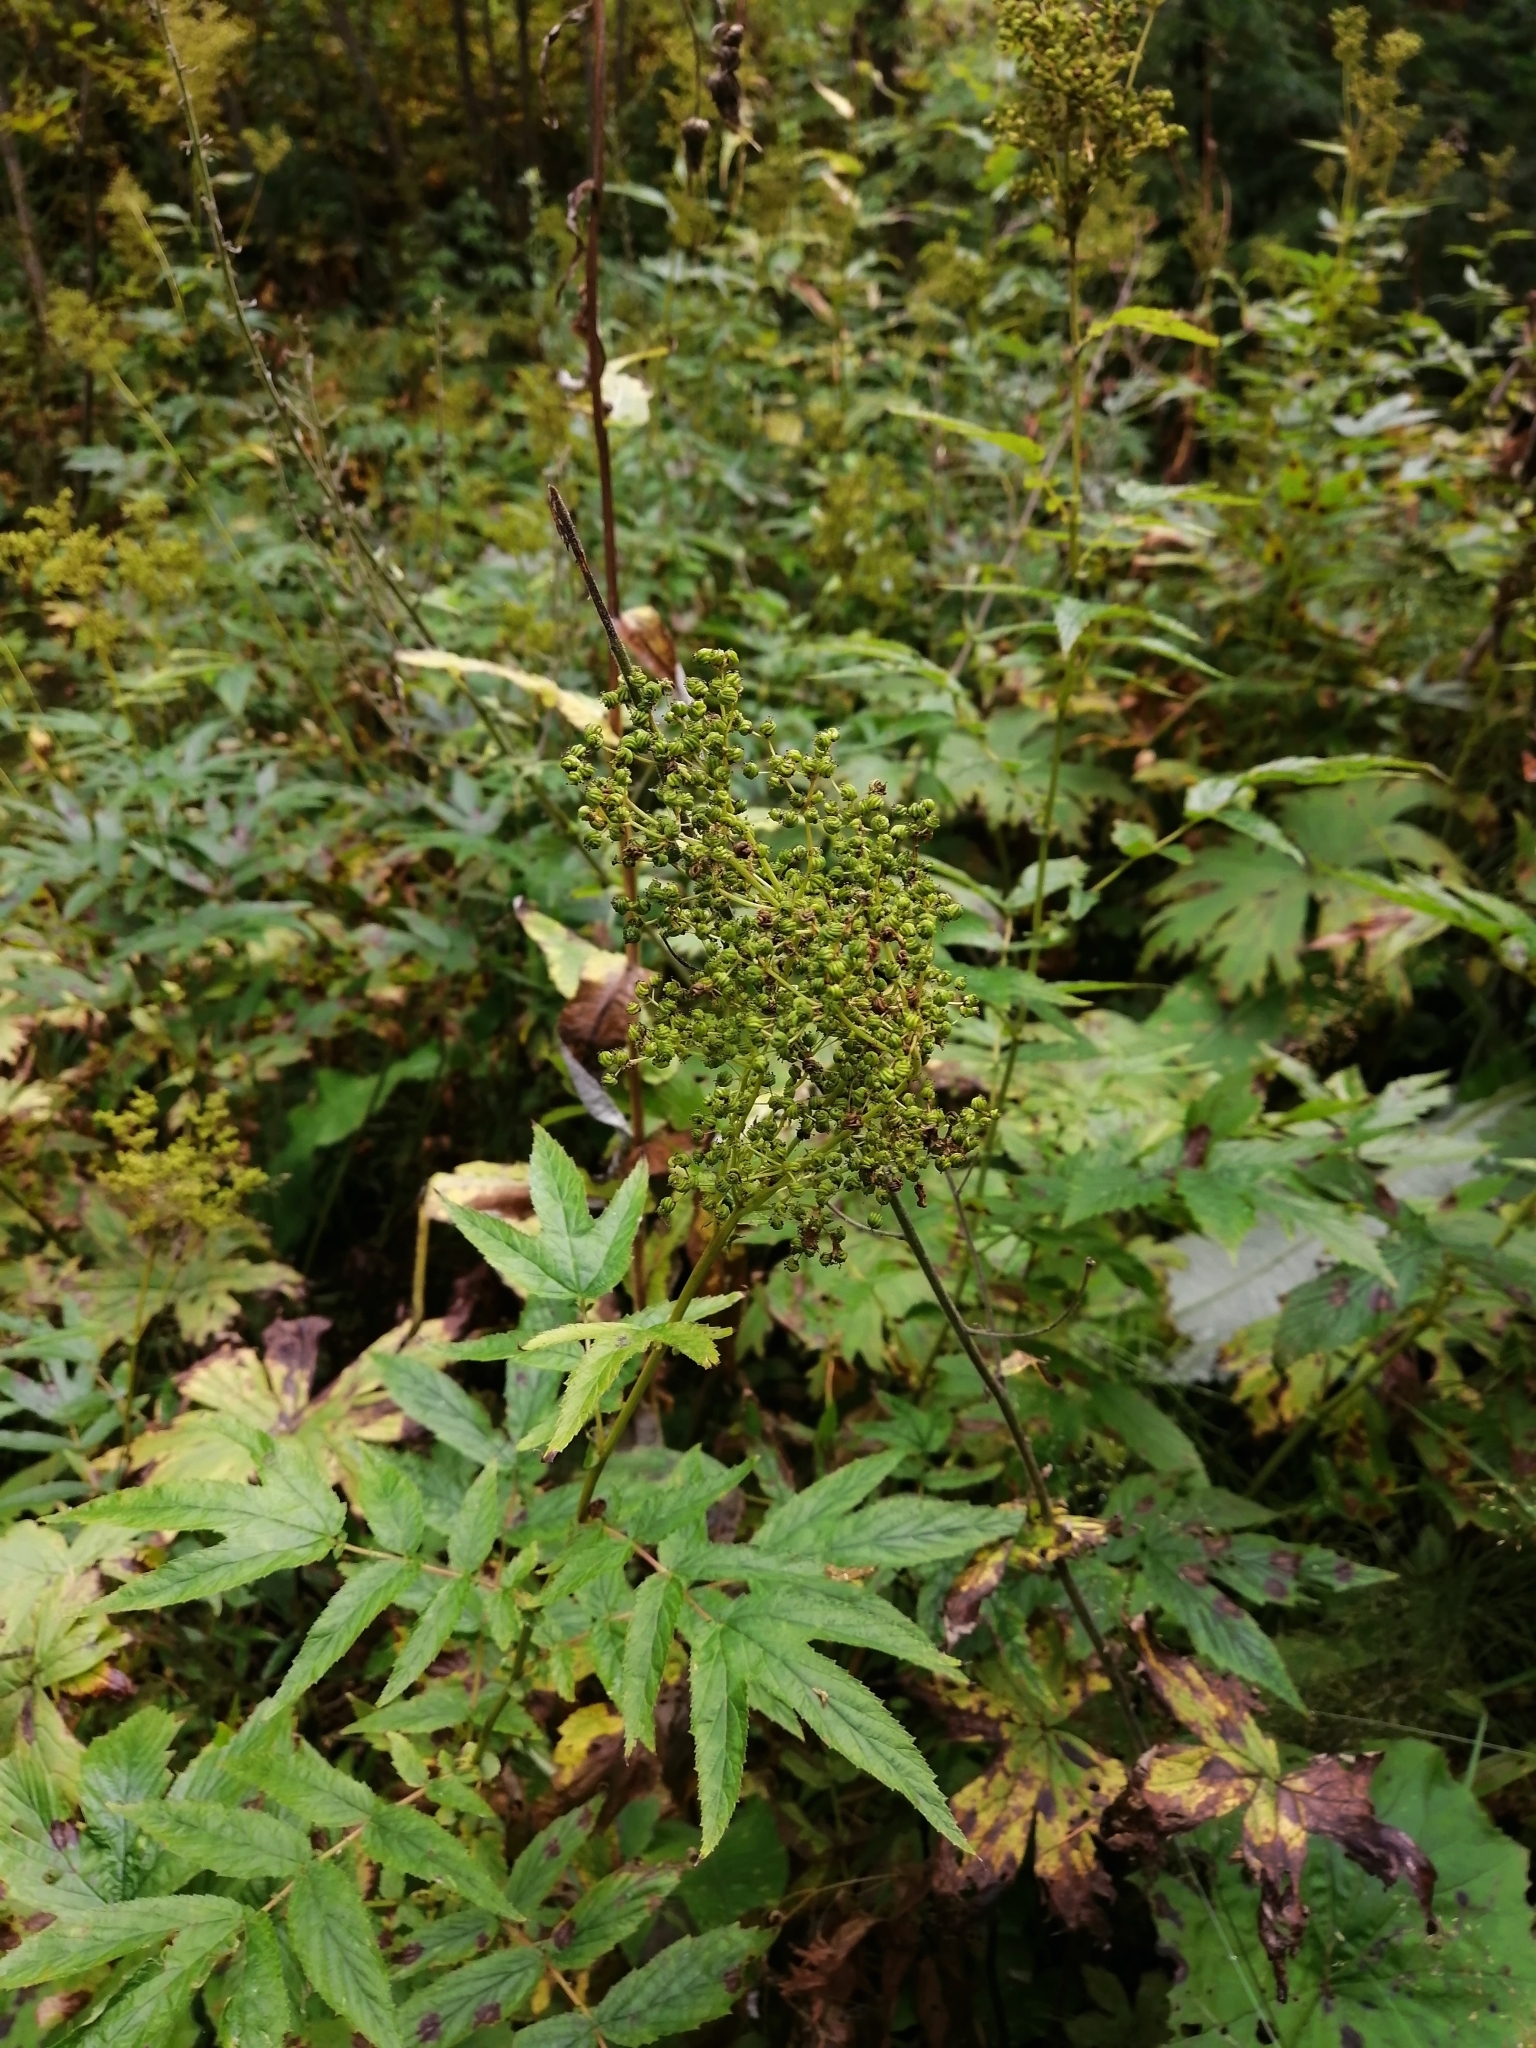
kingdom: Plantae
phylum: Tracheophyta
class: Magnoliopsida
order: Rosales
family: Rosaceae
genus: Filipendula
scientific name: Filipendula ulmaria
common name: Meadowsweet
